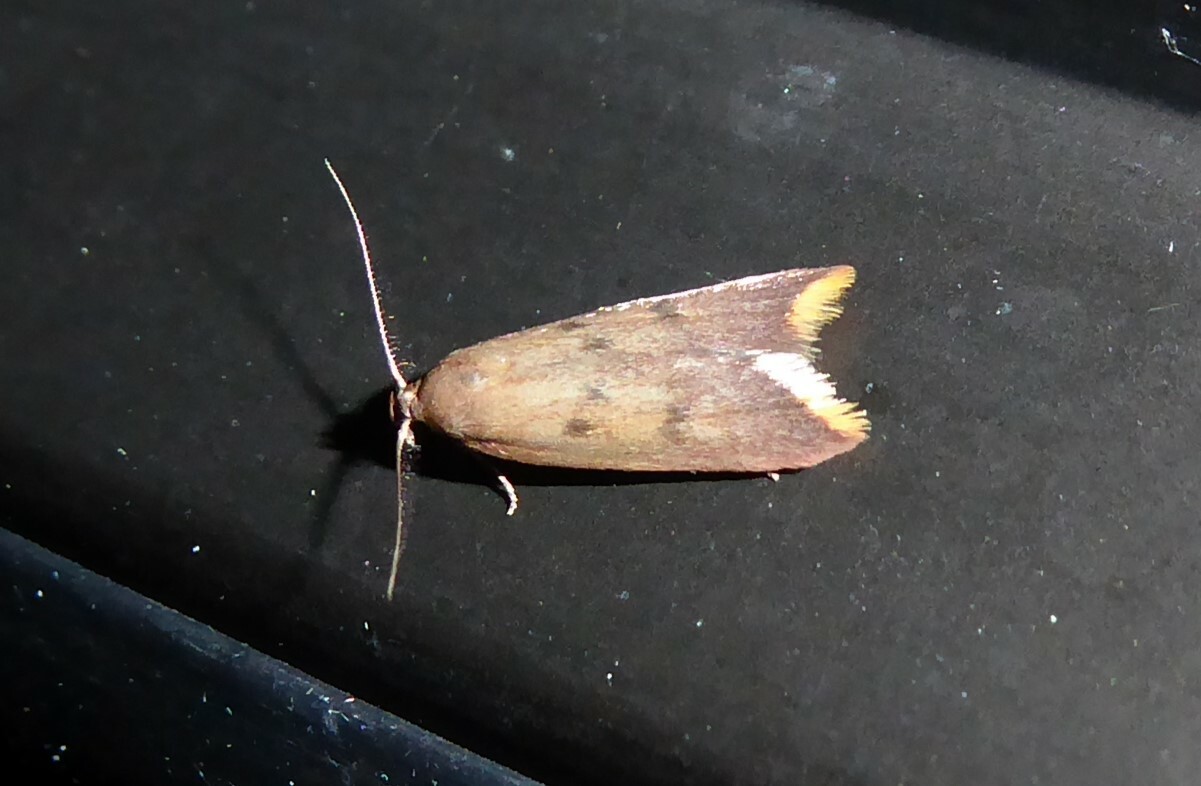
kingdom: Animalia
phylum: Arthropoda
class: Insecta
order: Lepidoptera
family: Oecophoridae
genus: Tachystola
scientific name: Tachystola acroxantha
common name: Ruddy streak
